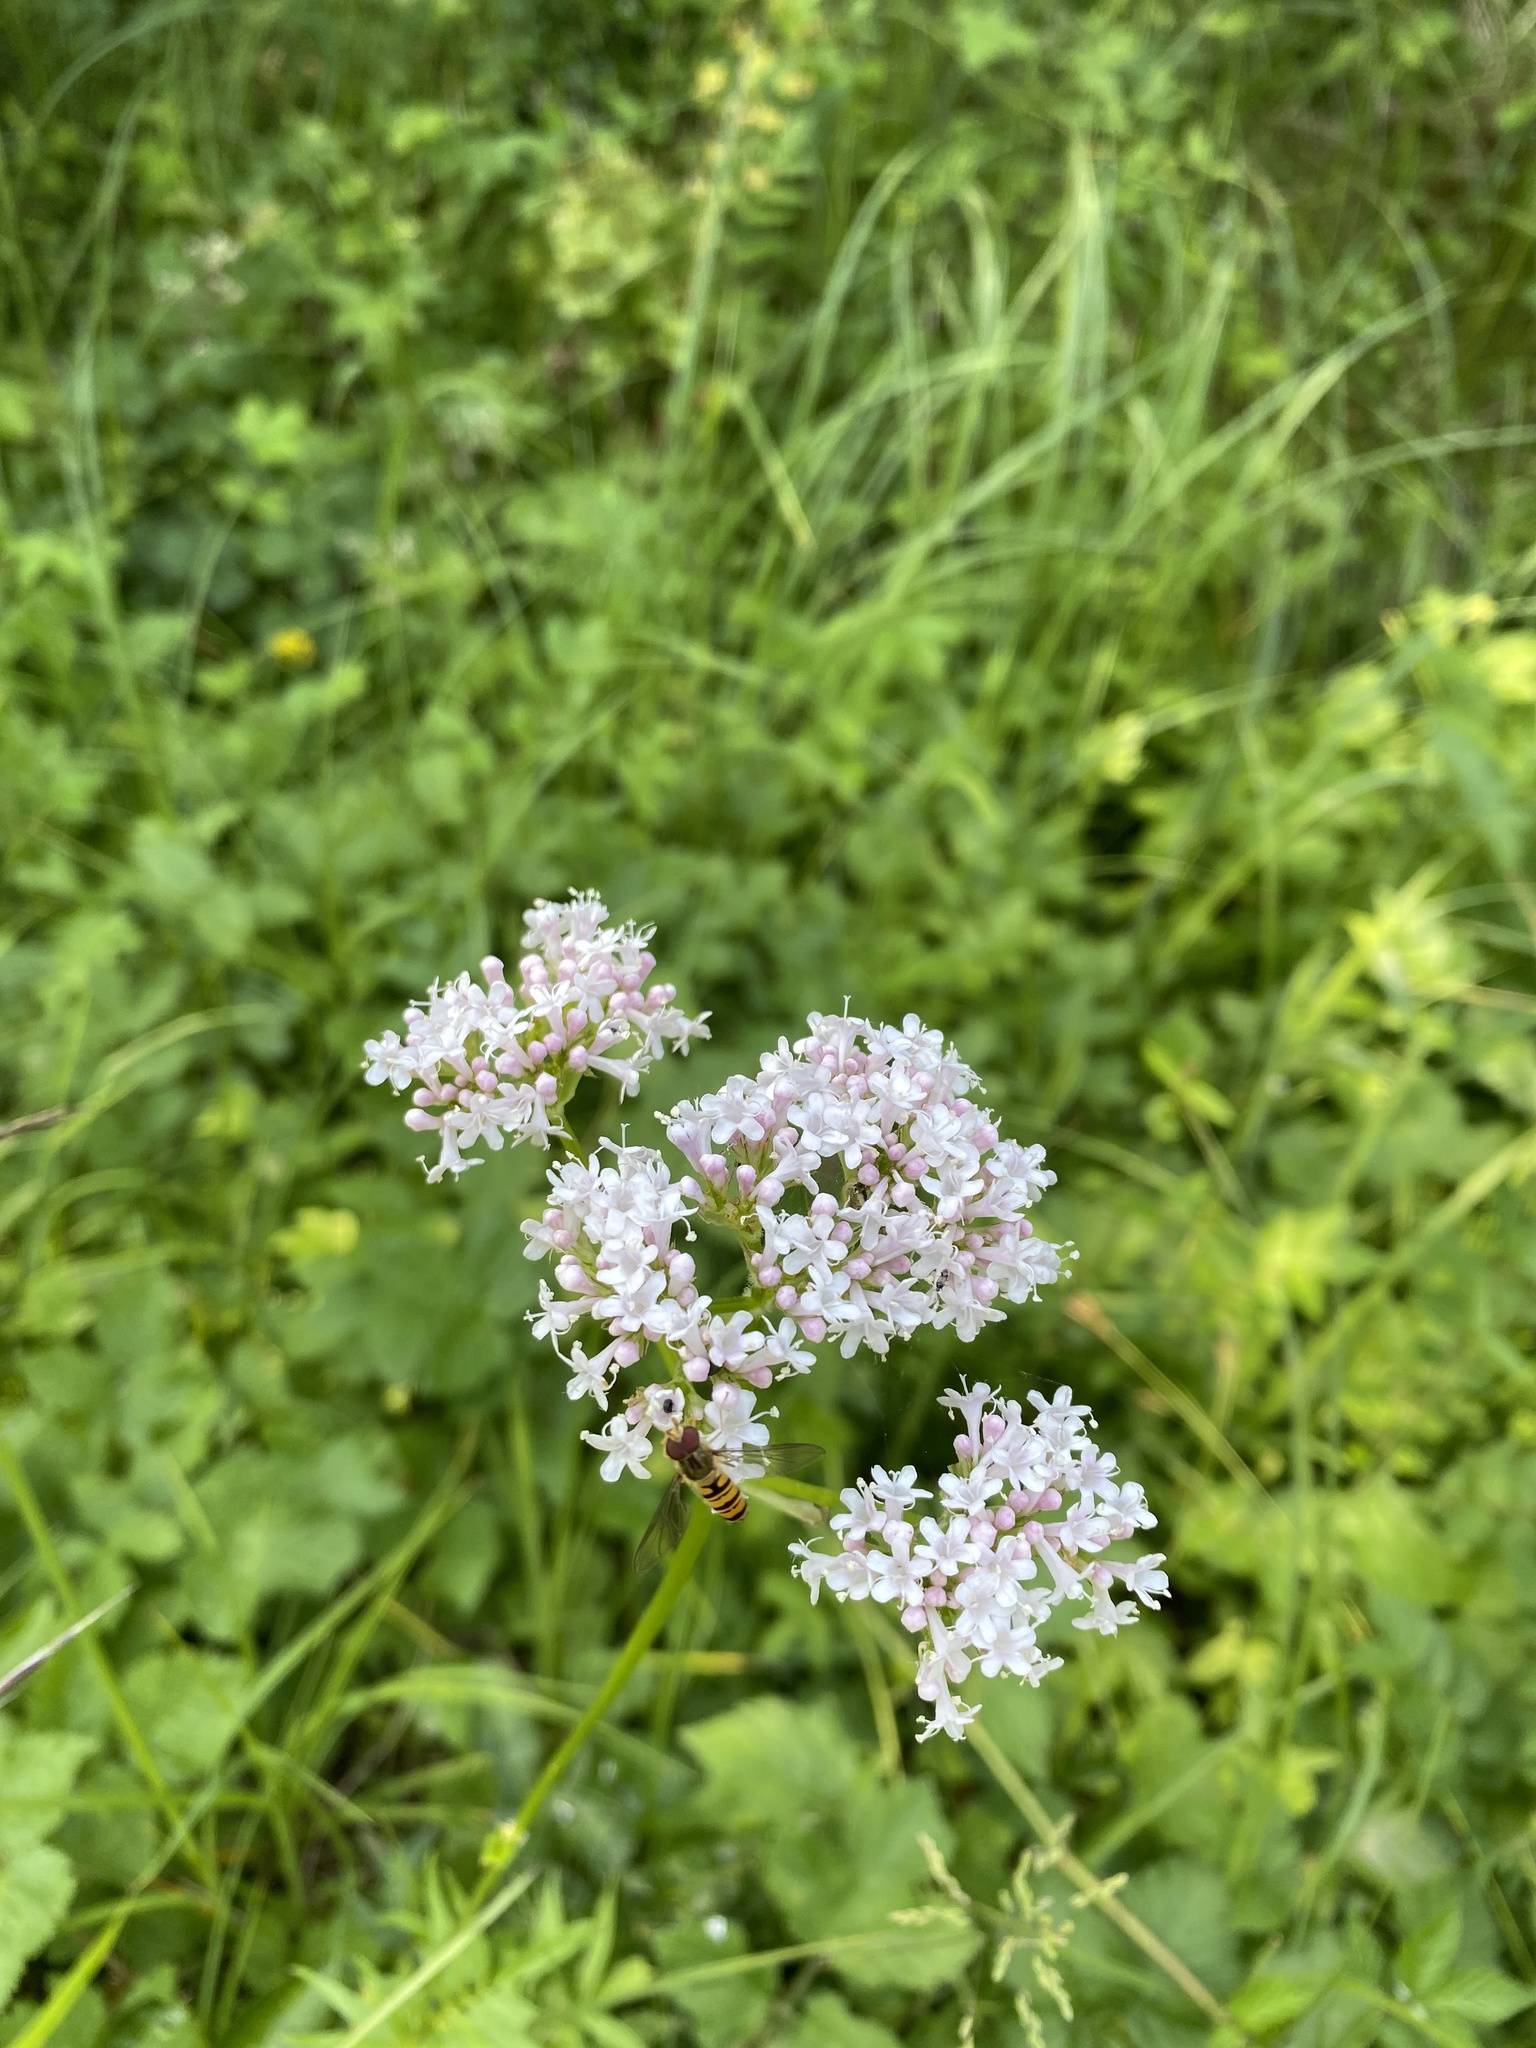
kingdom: Plantae
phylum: Tracheophyta
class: Magnoliopsida
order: Dipsacales
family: Caprifoliaceae
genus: Valeriana
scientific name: Valeriana officinalis
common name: Common valerian
